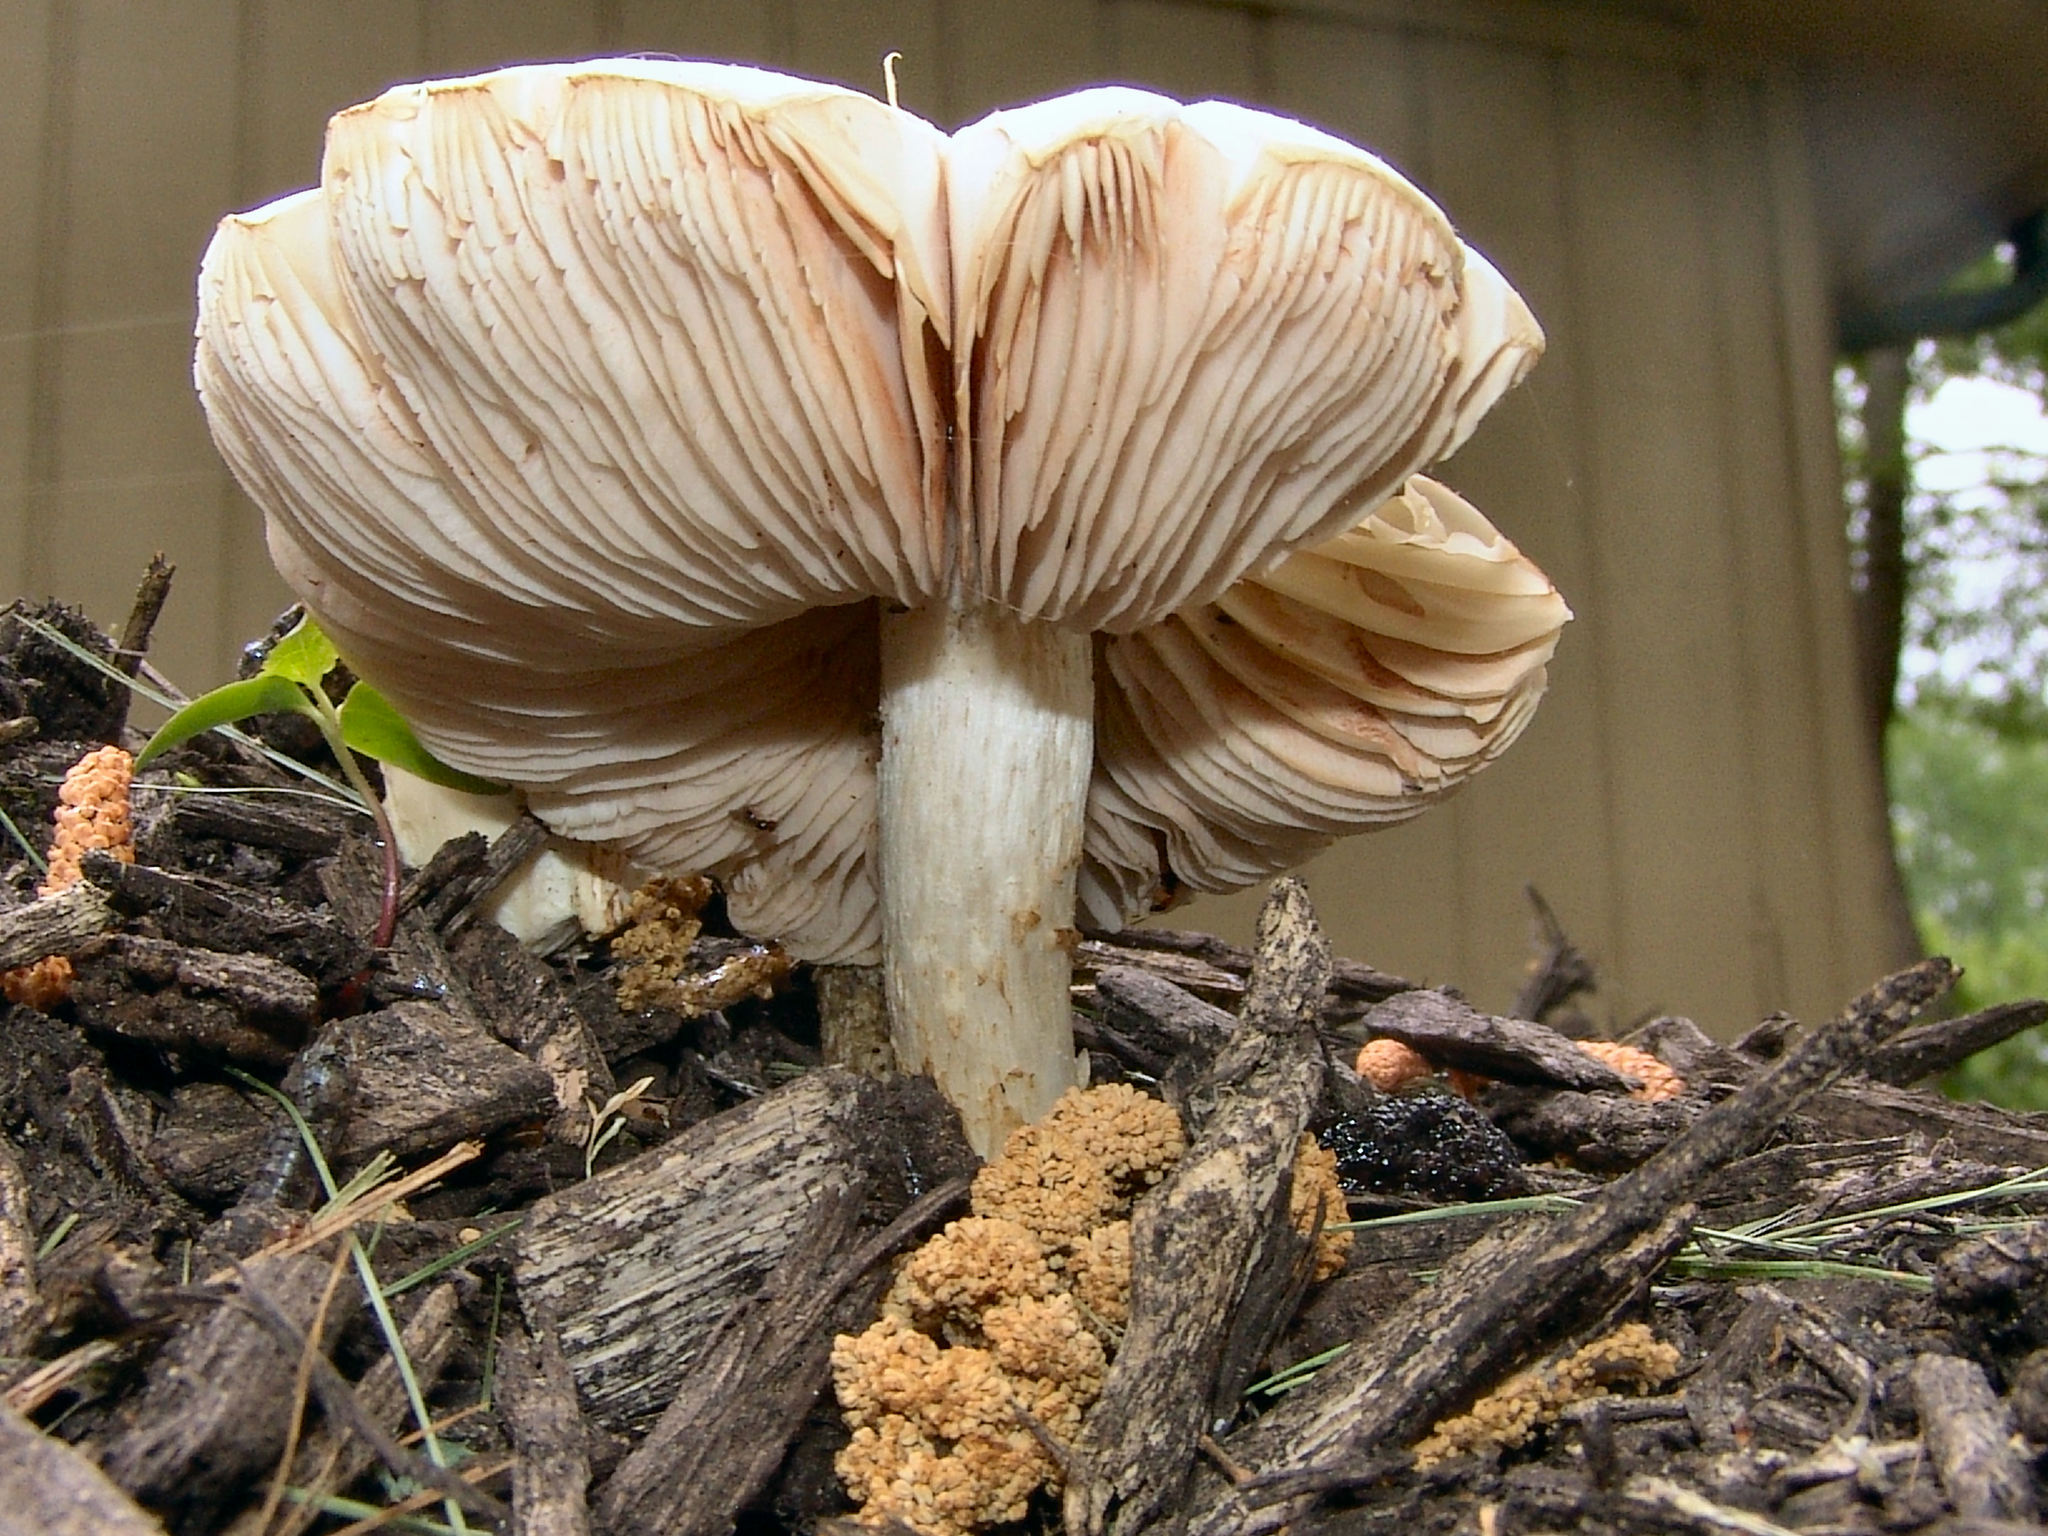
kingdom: Fungi
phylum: Basidiomycota
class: Agaricomycetes
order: Agaricales
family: Pluteaceae
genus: Pluteus
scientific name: Pluteus petasatus
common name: Scaly shield
